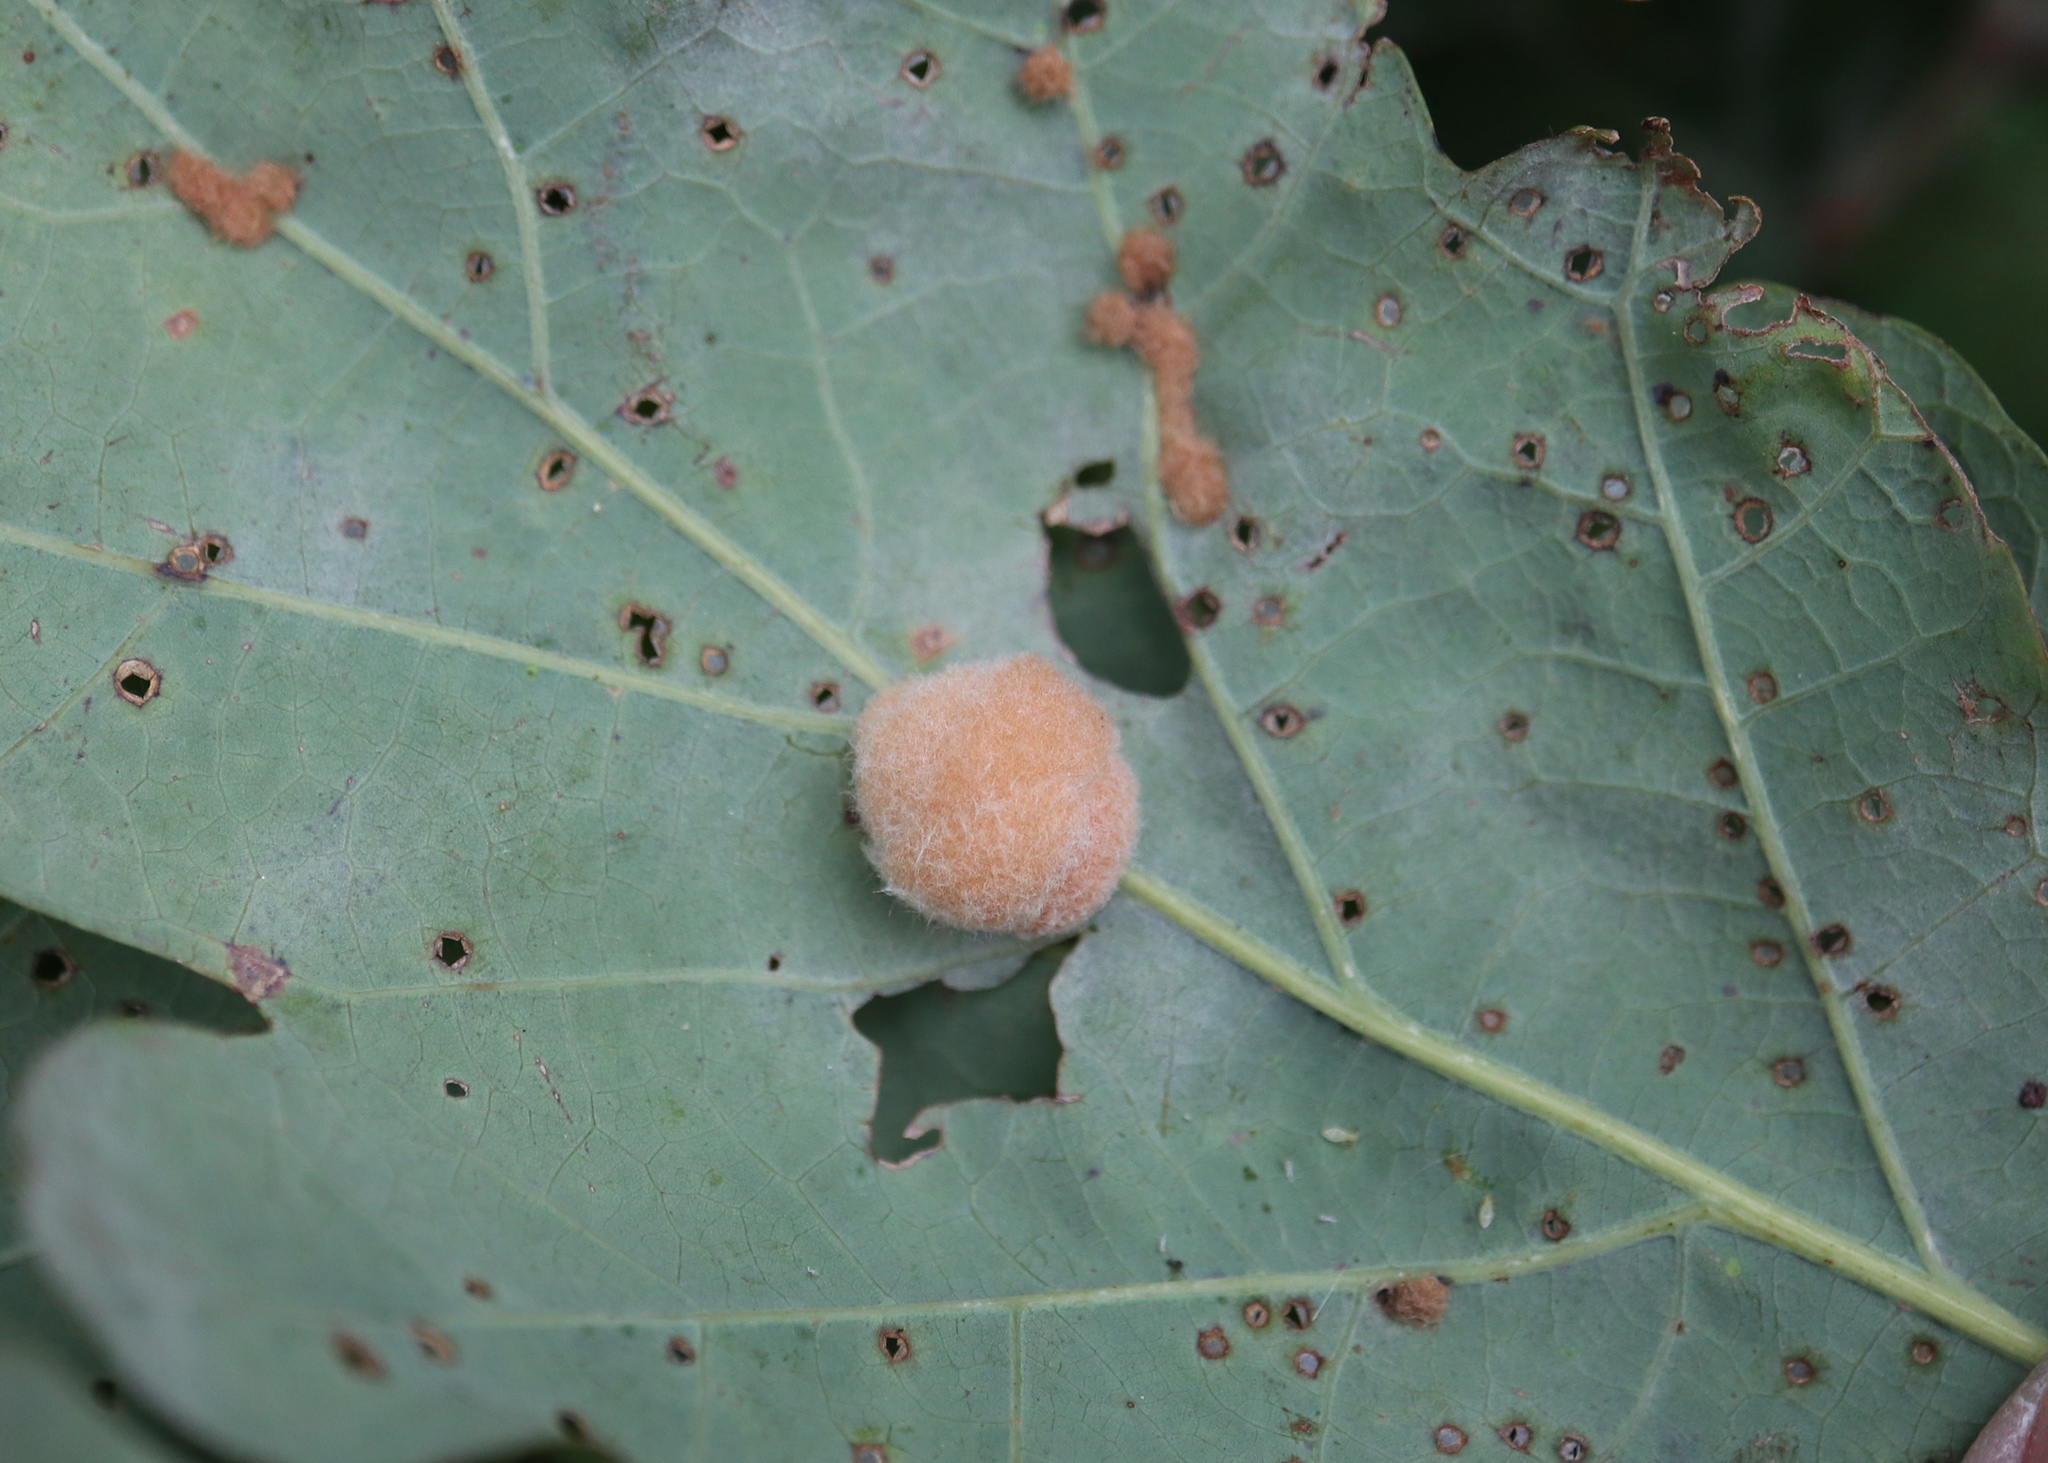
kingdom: Animalia
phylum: Arthropoda
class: Insecta
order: Hymenoptera
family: Cynipidae
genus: Andricus
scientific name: Andricus quercusflocci
